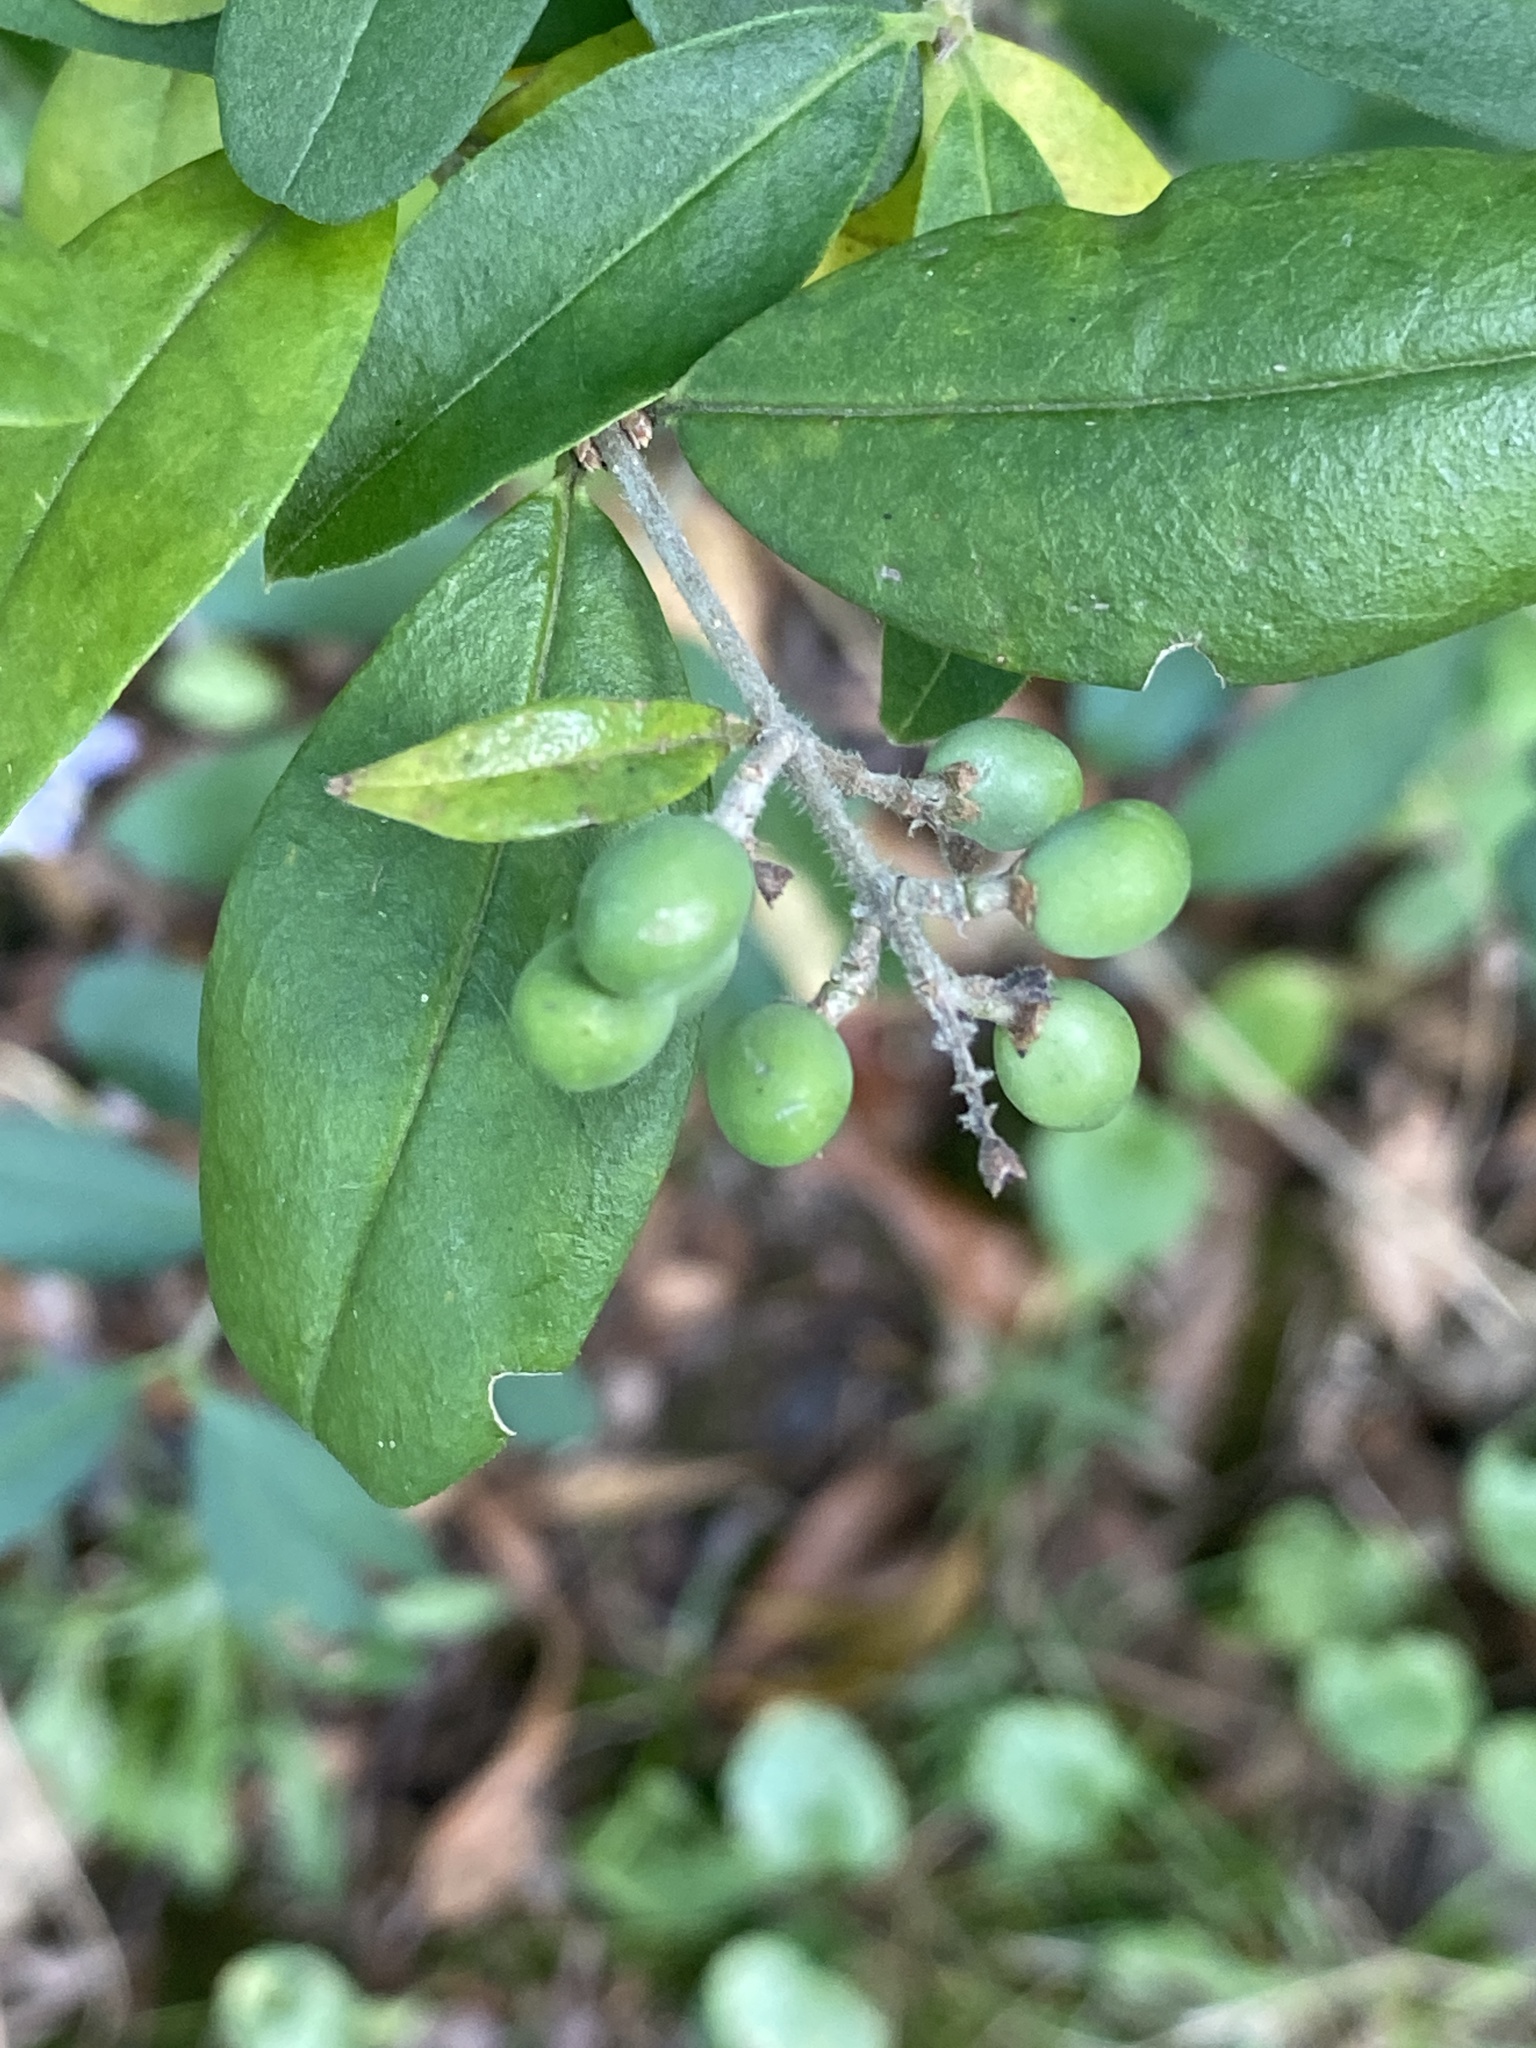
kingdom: Plantae
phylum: Tracheophyta
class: Magnoliopsida
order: Lamiales
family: Oleaceae
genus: Ligustrum
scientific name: Ligustrum obtusifolium
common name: Border privet
